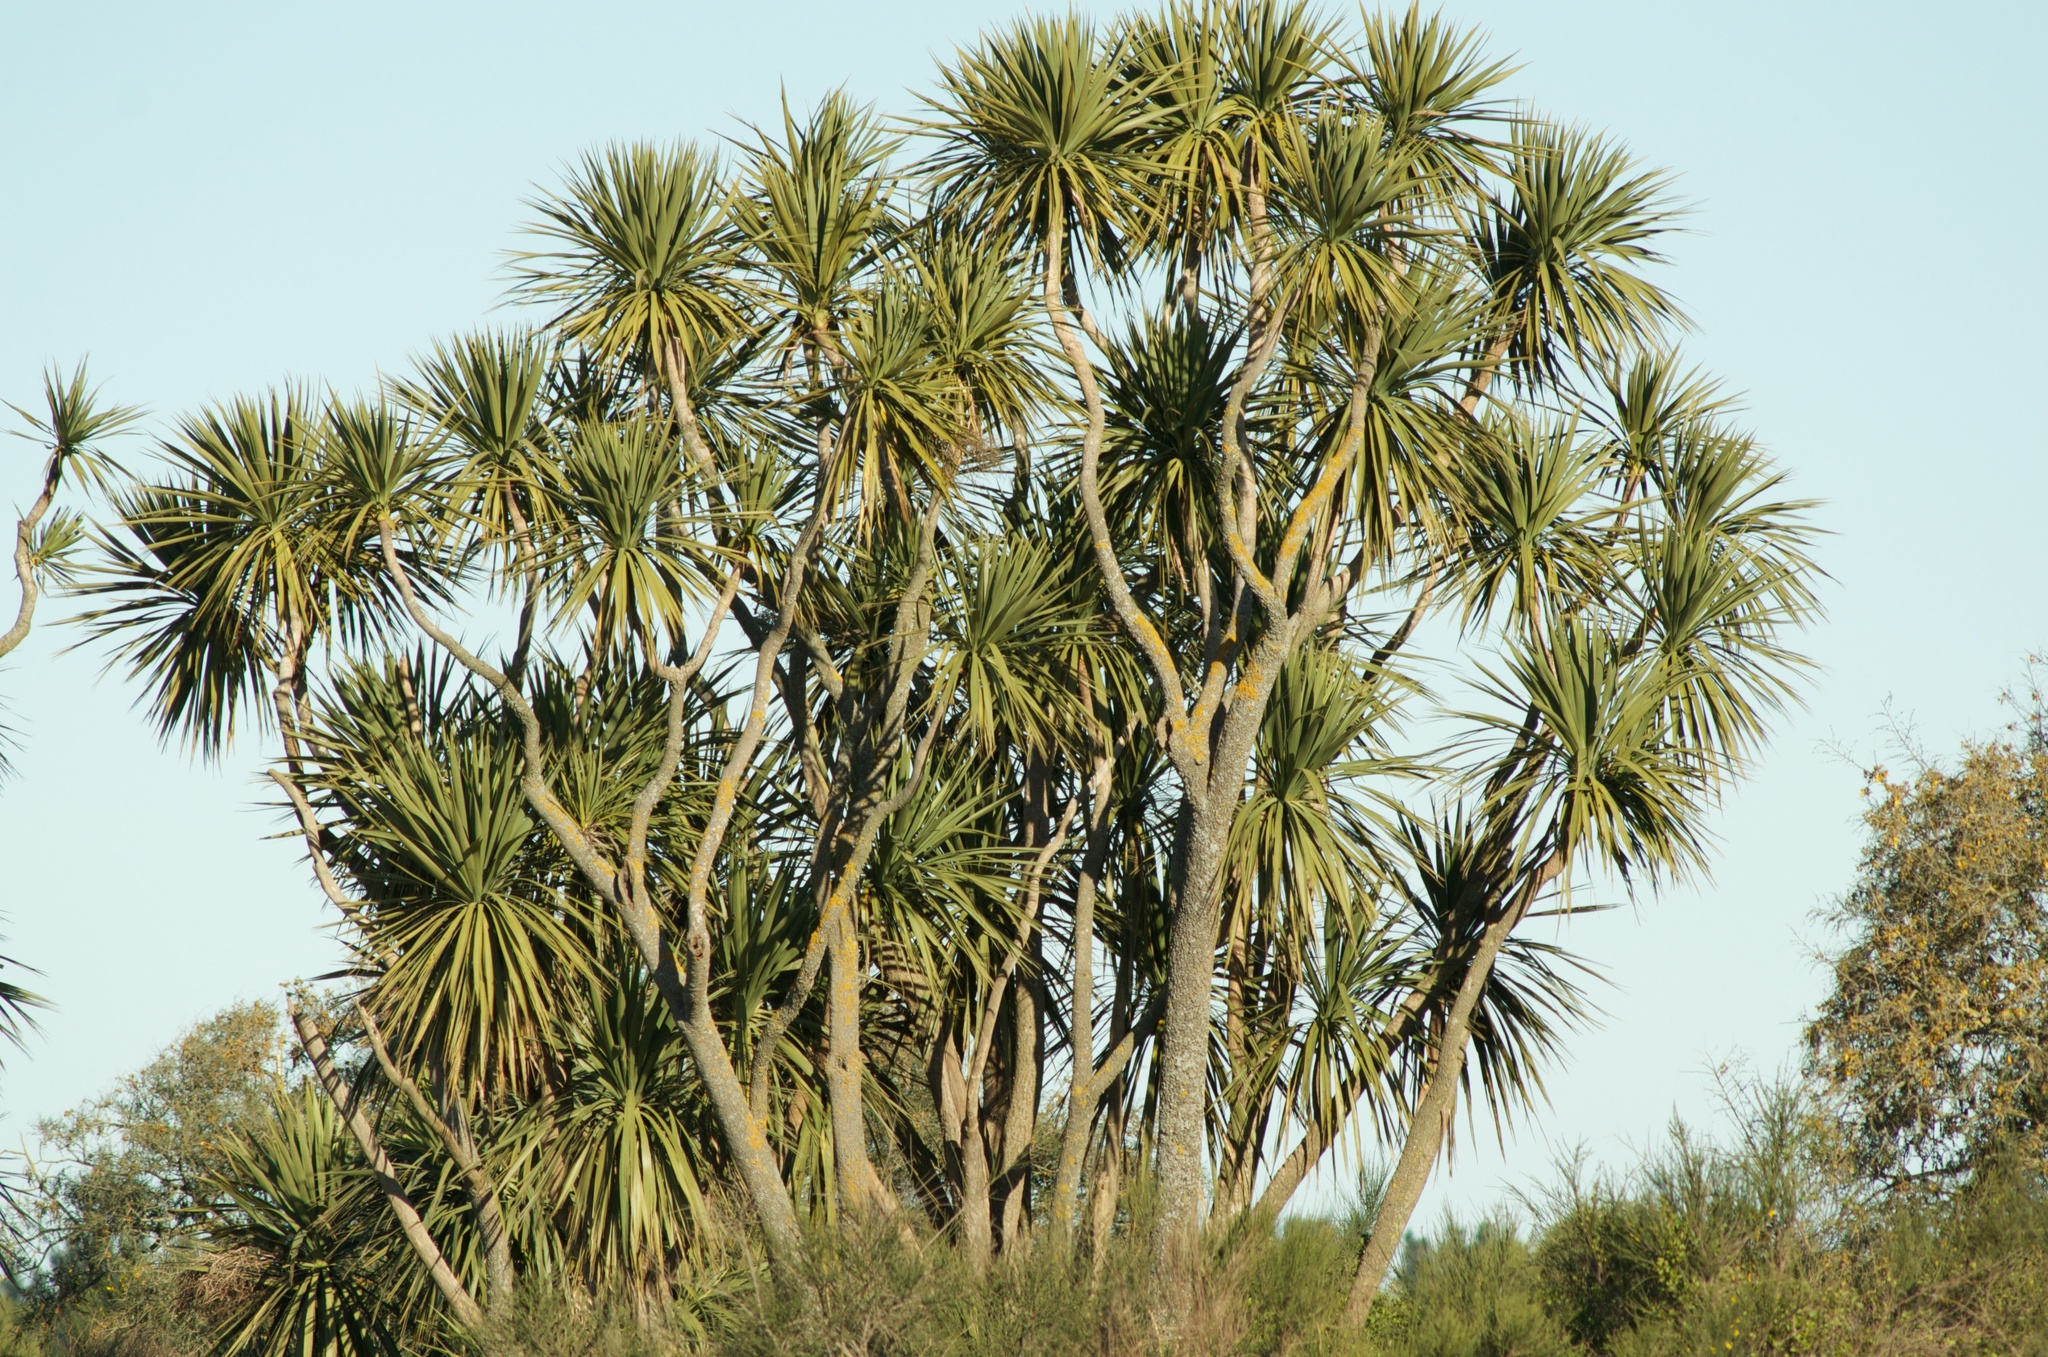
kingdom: Plantae
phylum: Tracheophyta
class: Liliopsida
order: Asparagales
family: Asparagaceae
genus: Cordyline
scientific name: Cordyline australis
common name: Cabbage-palm
